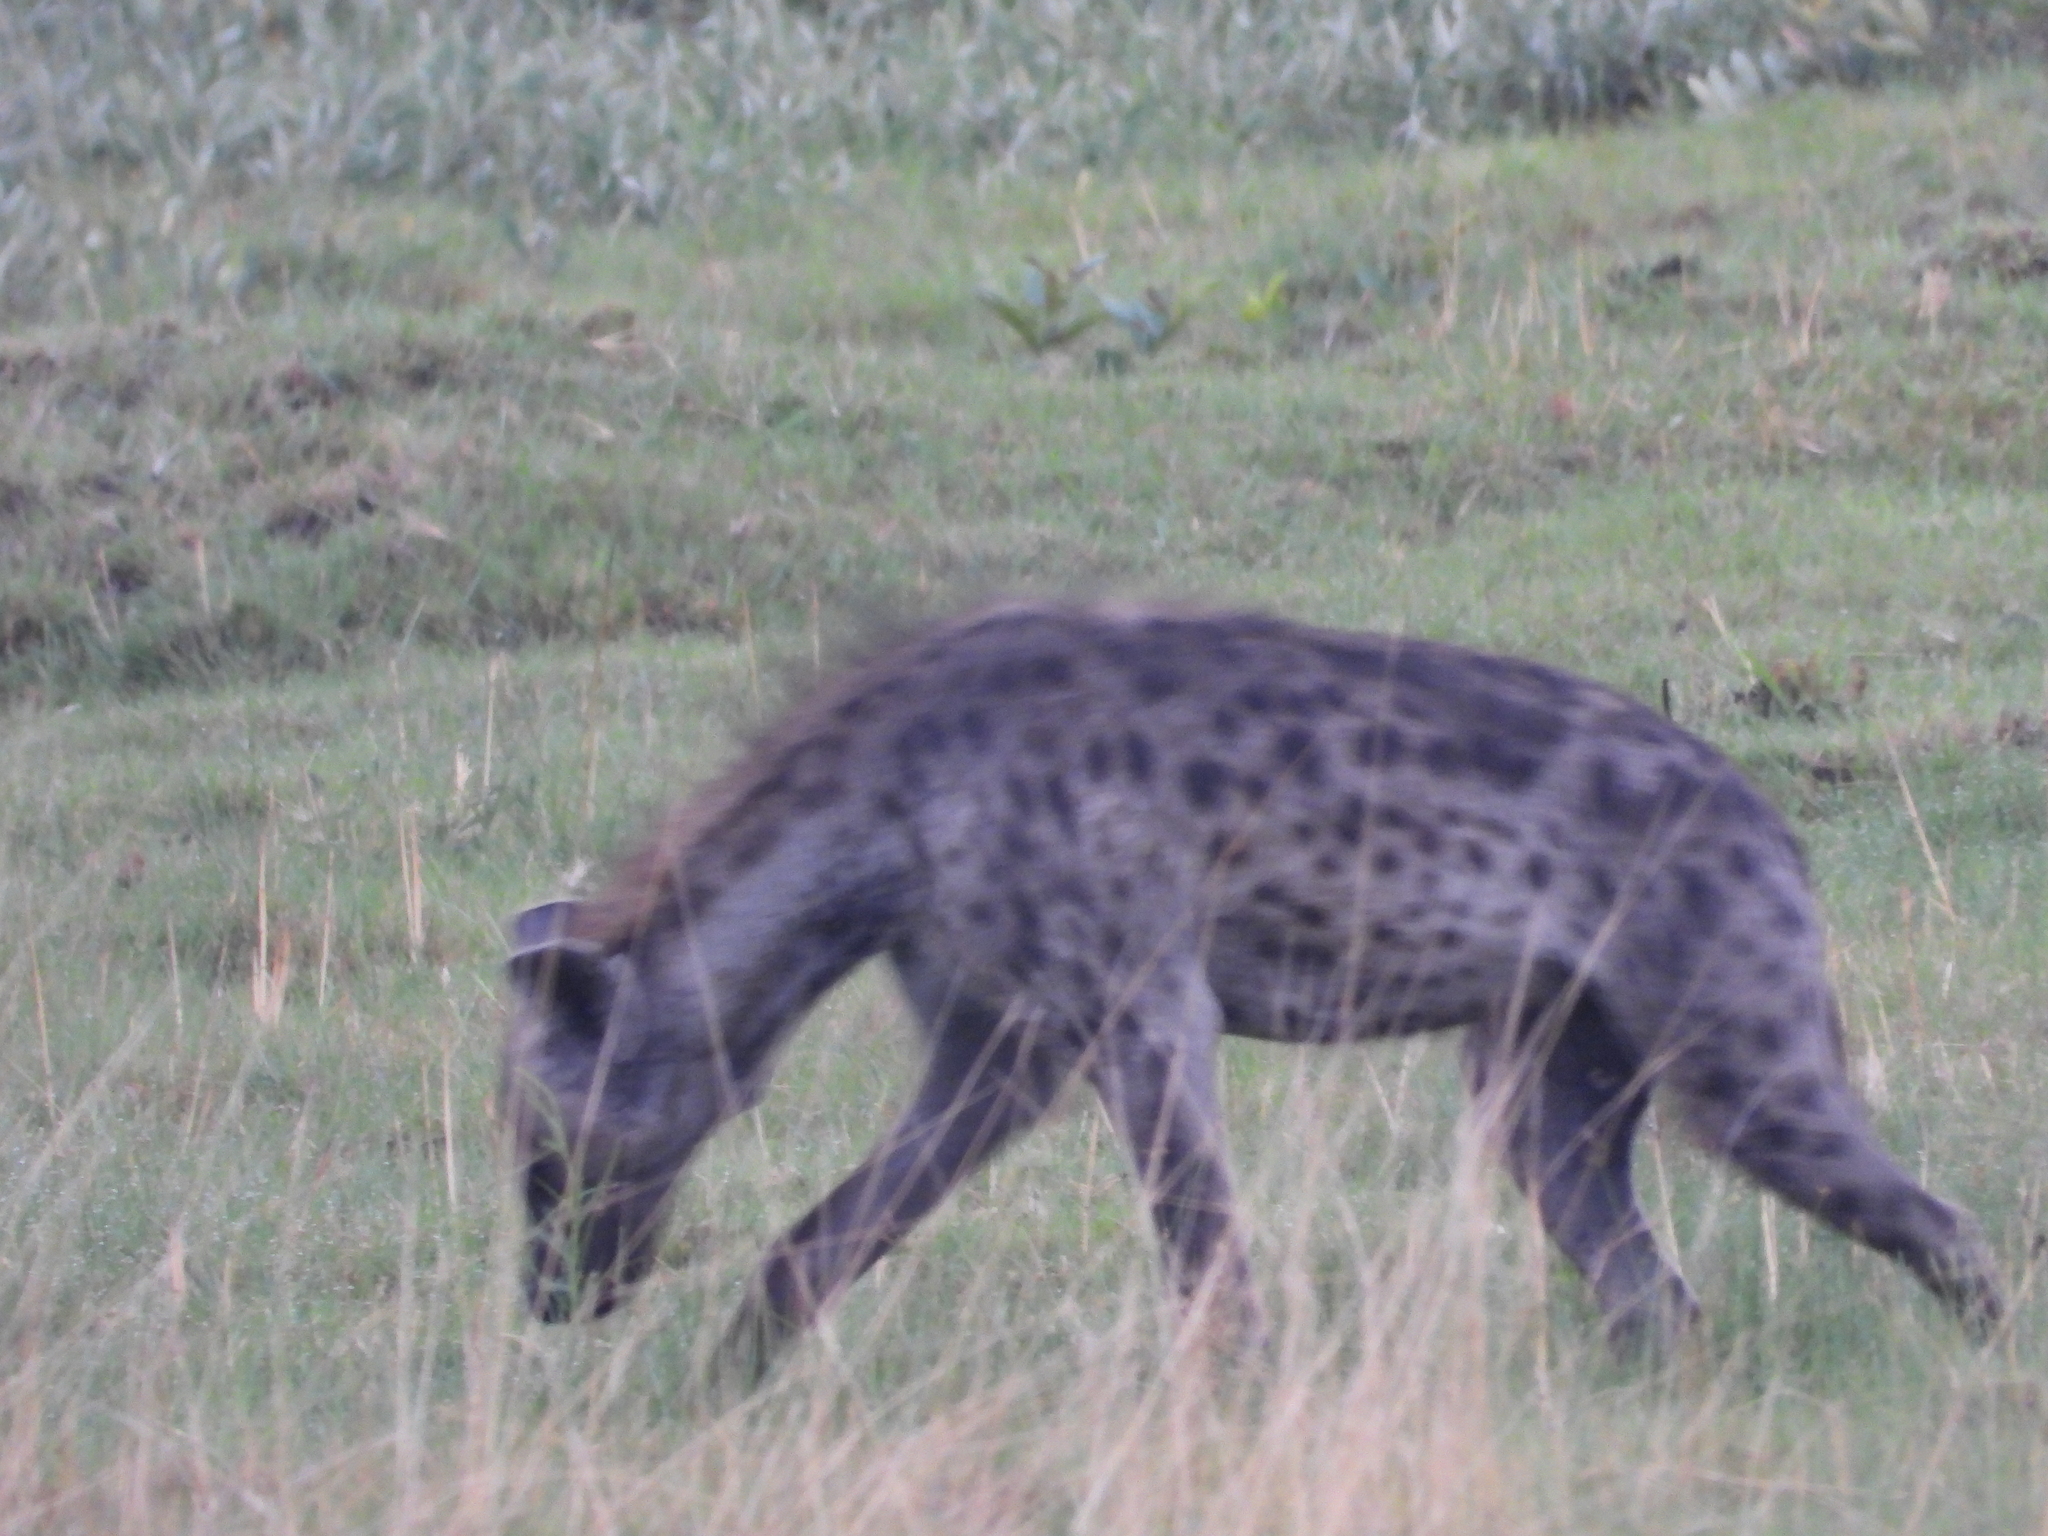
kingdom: Animalia
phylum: Chordata
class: Mammalia
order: Carnivora
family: Hyaenidae
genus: Crocuta
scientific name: Crocuta crocuta
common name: Spotted hyaena
